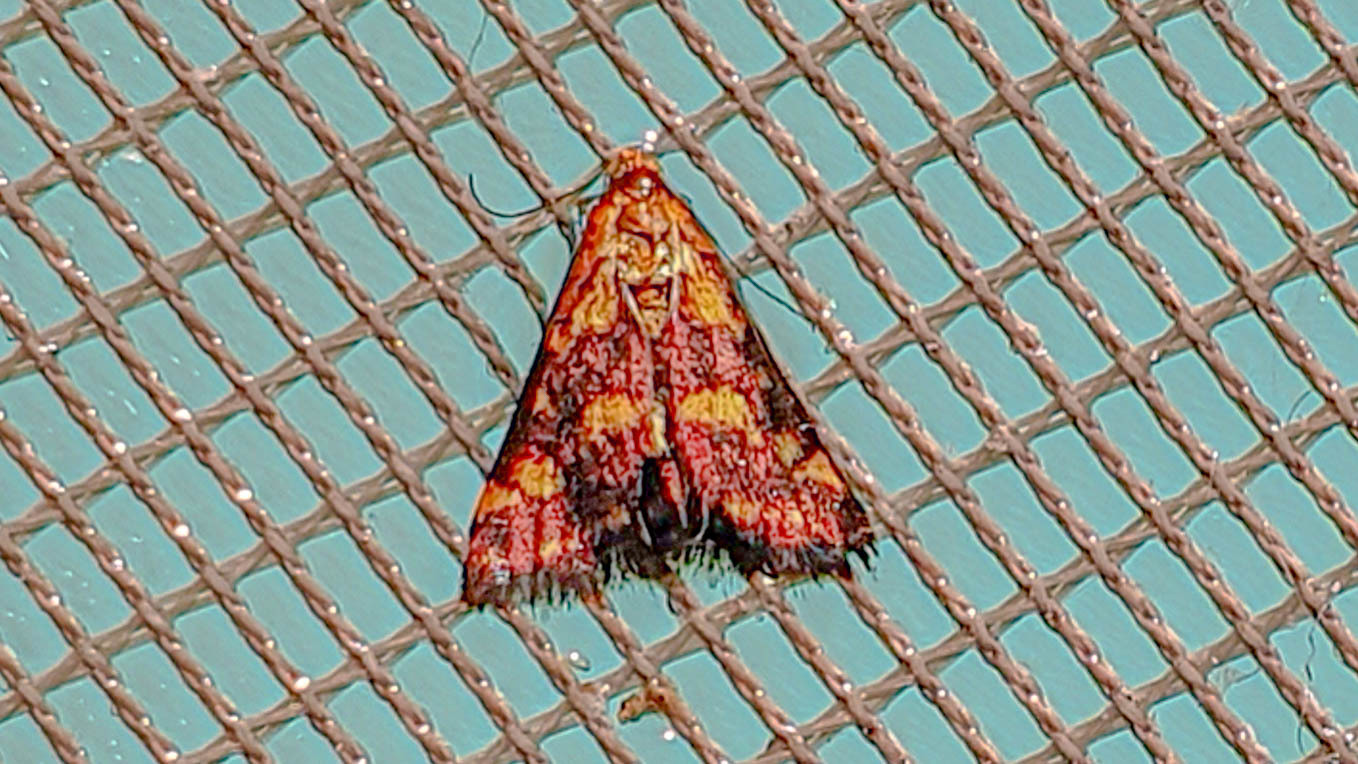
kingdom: Animalia
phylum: Arthropoda
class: Insecta
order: Lepidoptera
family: Crambidae
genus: Pyrausta
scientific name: Pyrausta purpuralis
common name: Common purple & gold
